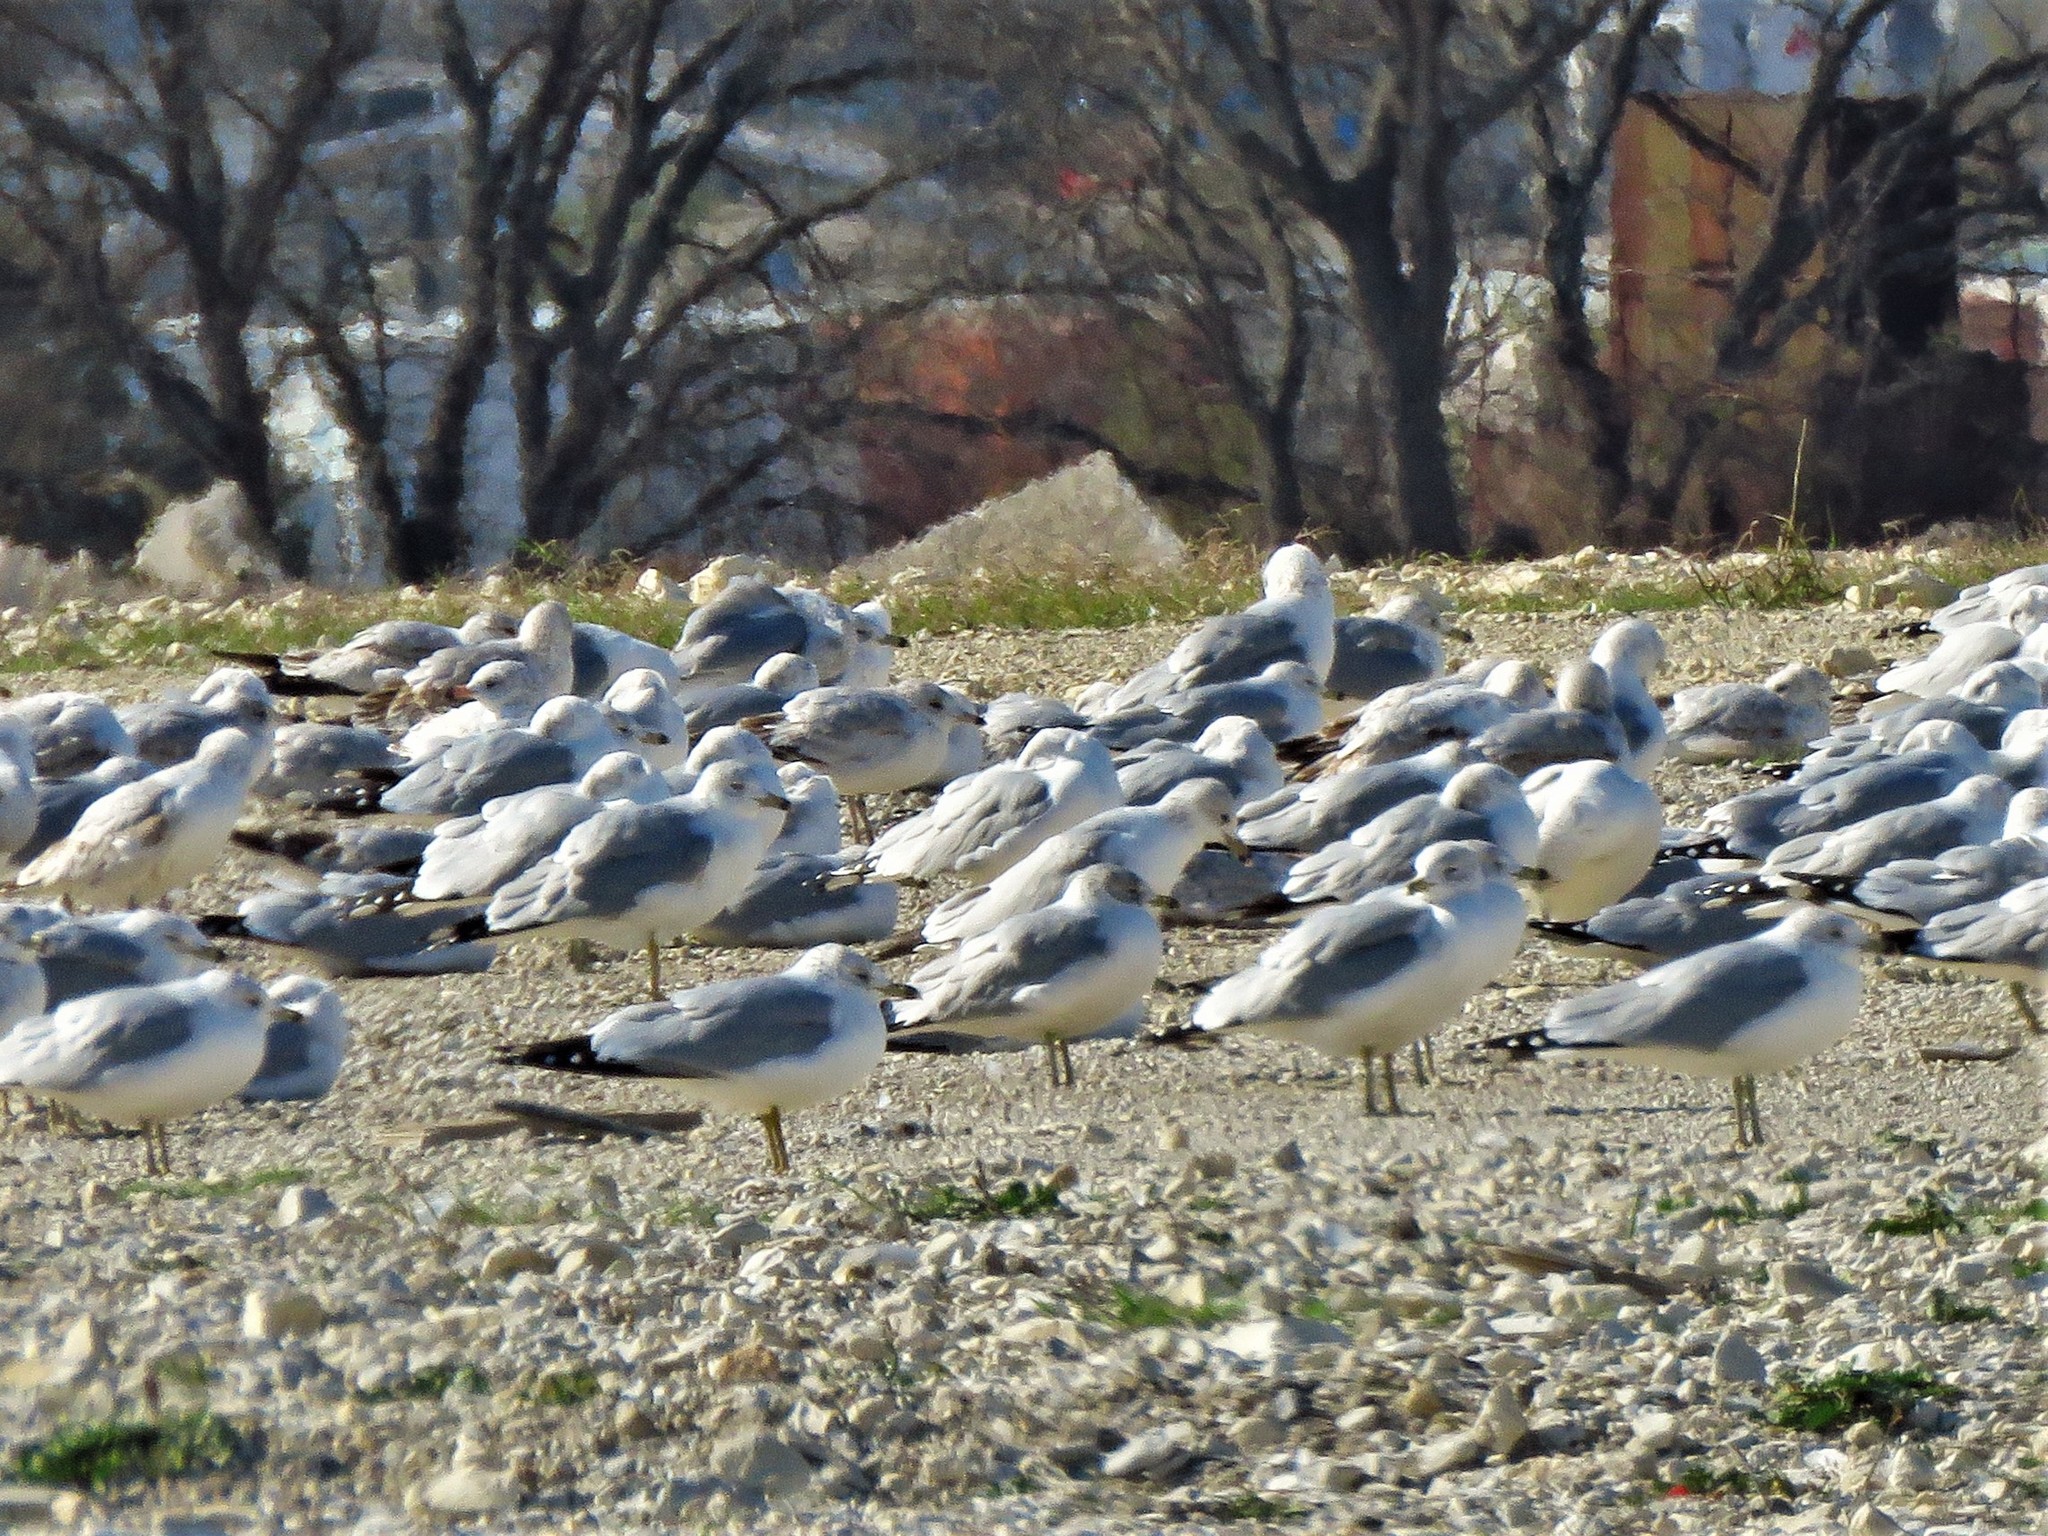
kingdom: Animalia
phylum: Chordata
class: Aves
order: Charadriiformes
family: Laridae
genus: Larus
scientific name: Larus delawarensis
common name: Ring-billed gull
